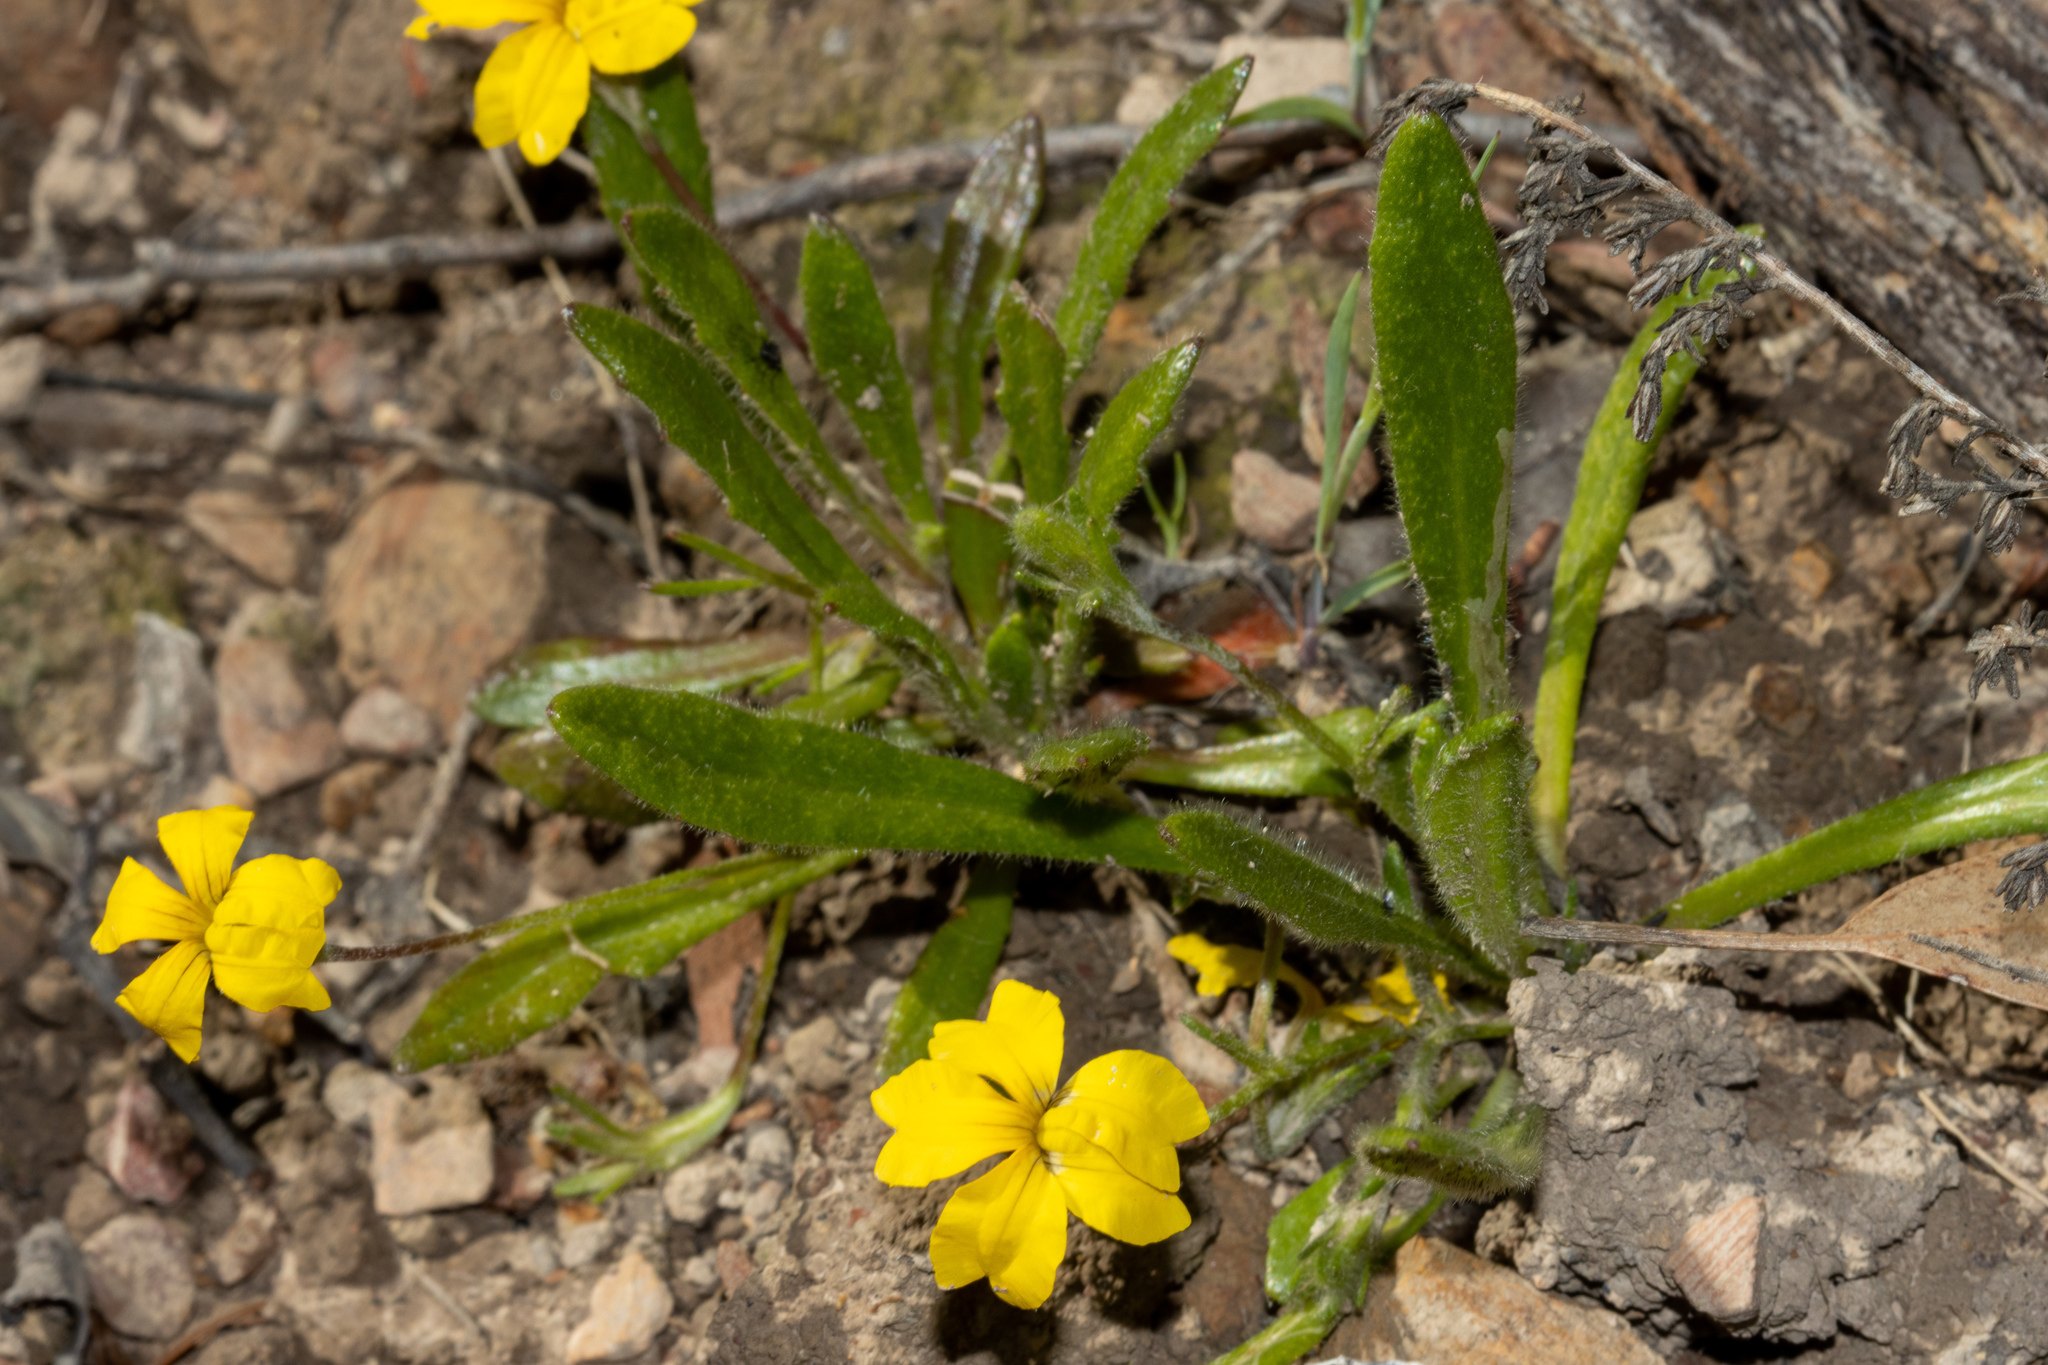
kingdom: Plantae
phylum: Tracheophyta
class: Magnoliopsida
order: Asterales
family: Goodeniaceae
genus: Goodenia
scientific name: Goodenia geniculata
